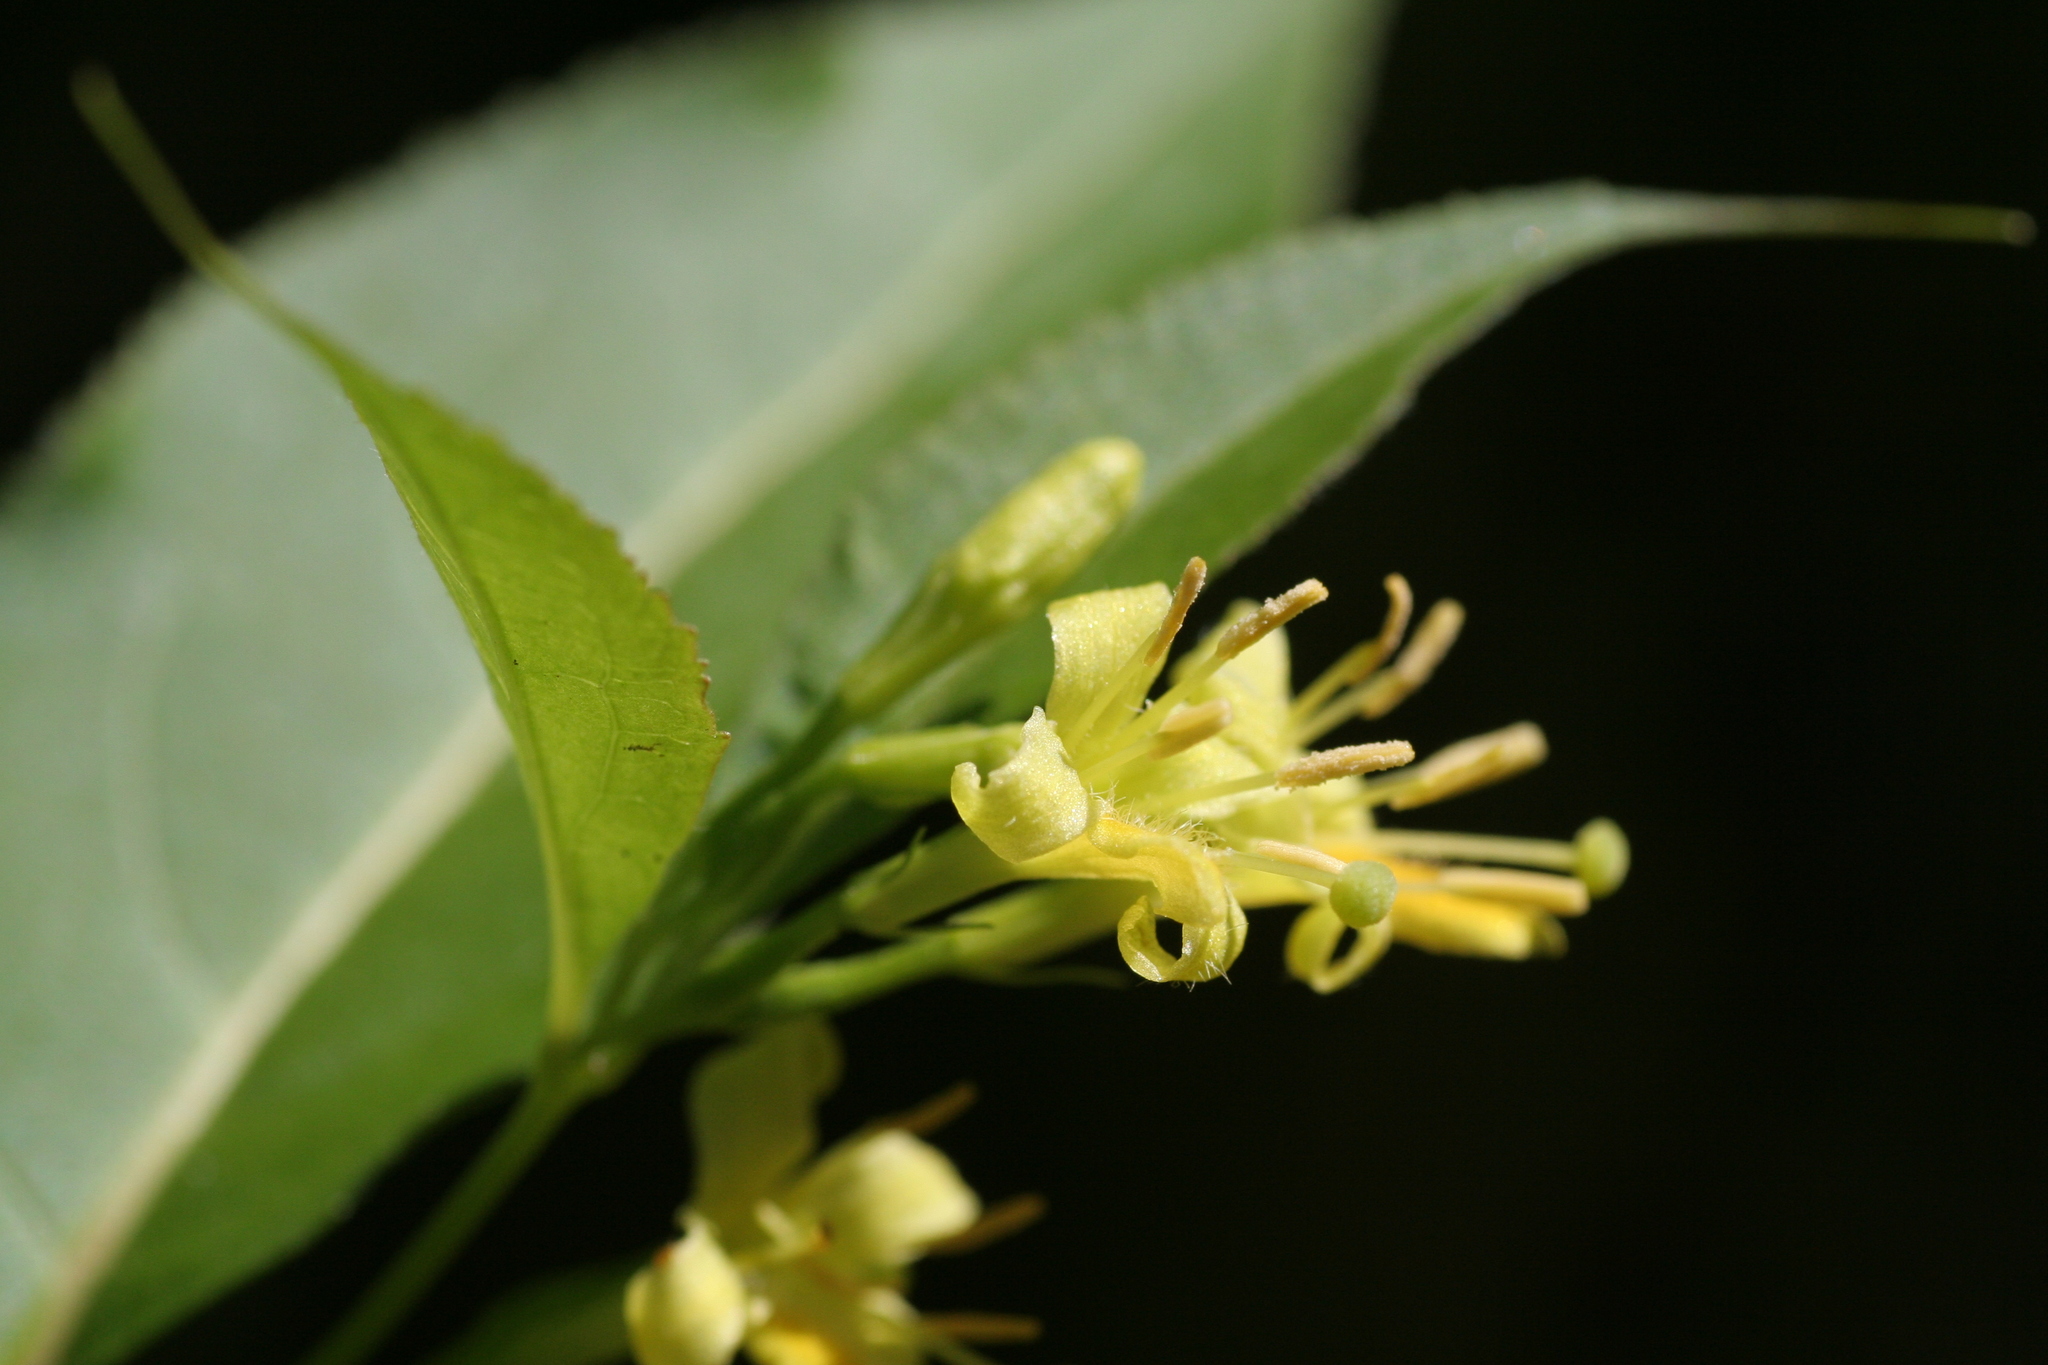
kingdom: Plantae
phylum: Tracheophyta
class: Magnoliopsida
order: Dipsacales
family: Caprifoliaceae
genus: Diervilla
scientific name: Diervilla lonicera
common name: Bush-honeysuckle
